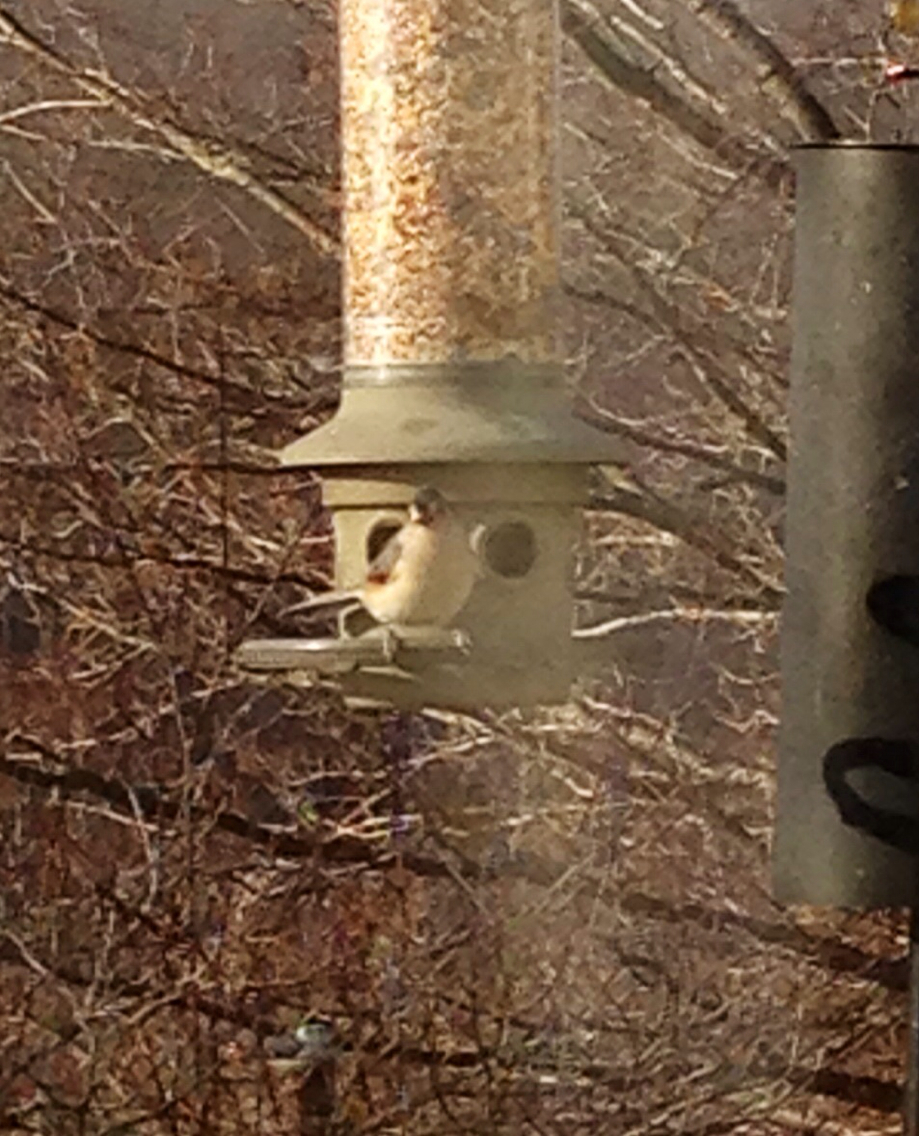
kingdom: Animalia
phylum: Chordata
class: Aves
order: Passeriformes
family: Paridae
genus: Baeolophus
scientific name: Baeolophus bicolor
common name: Tufted titmouse
